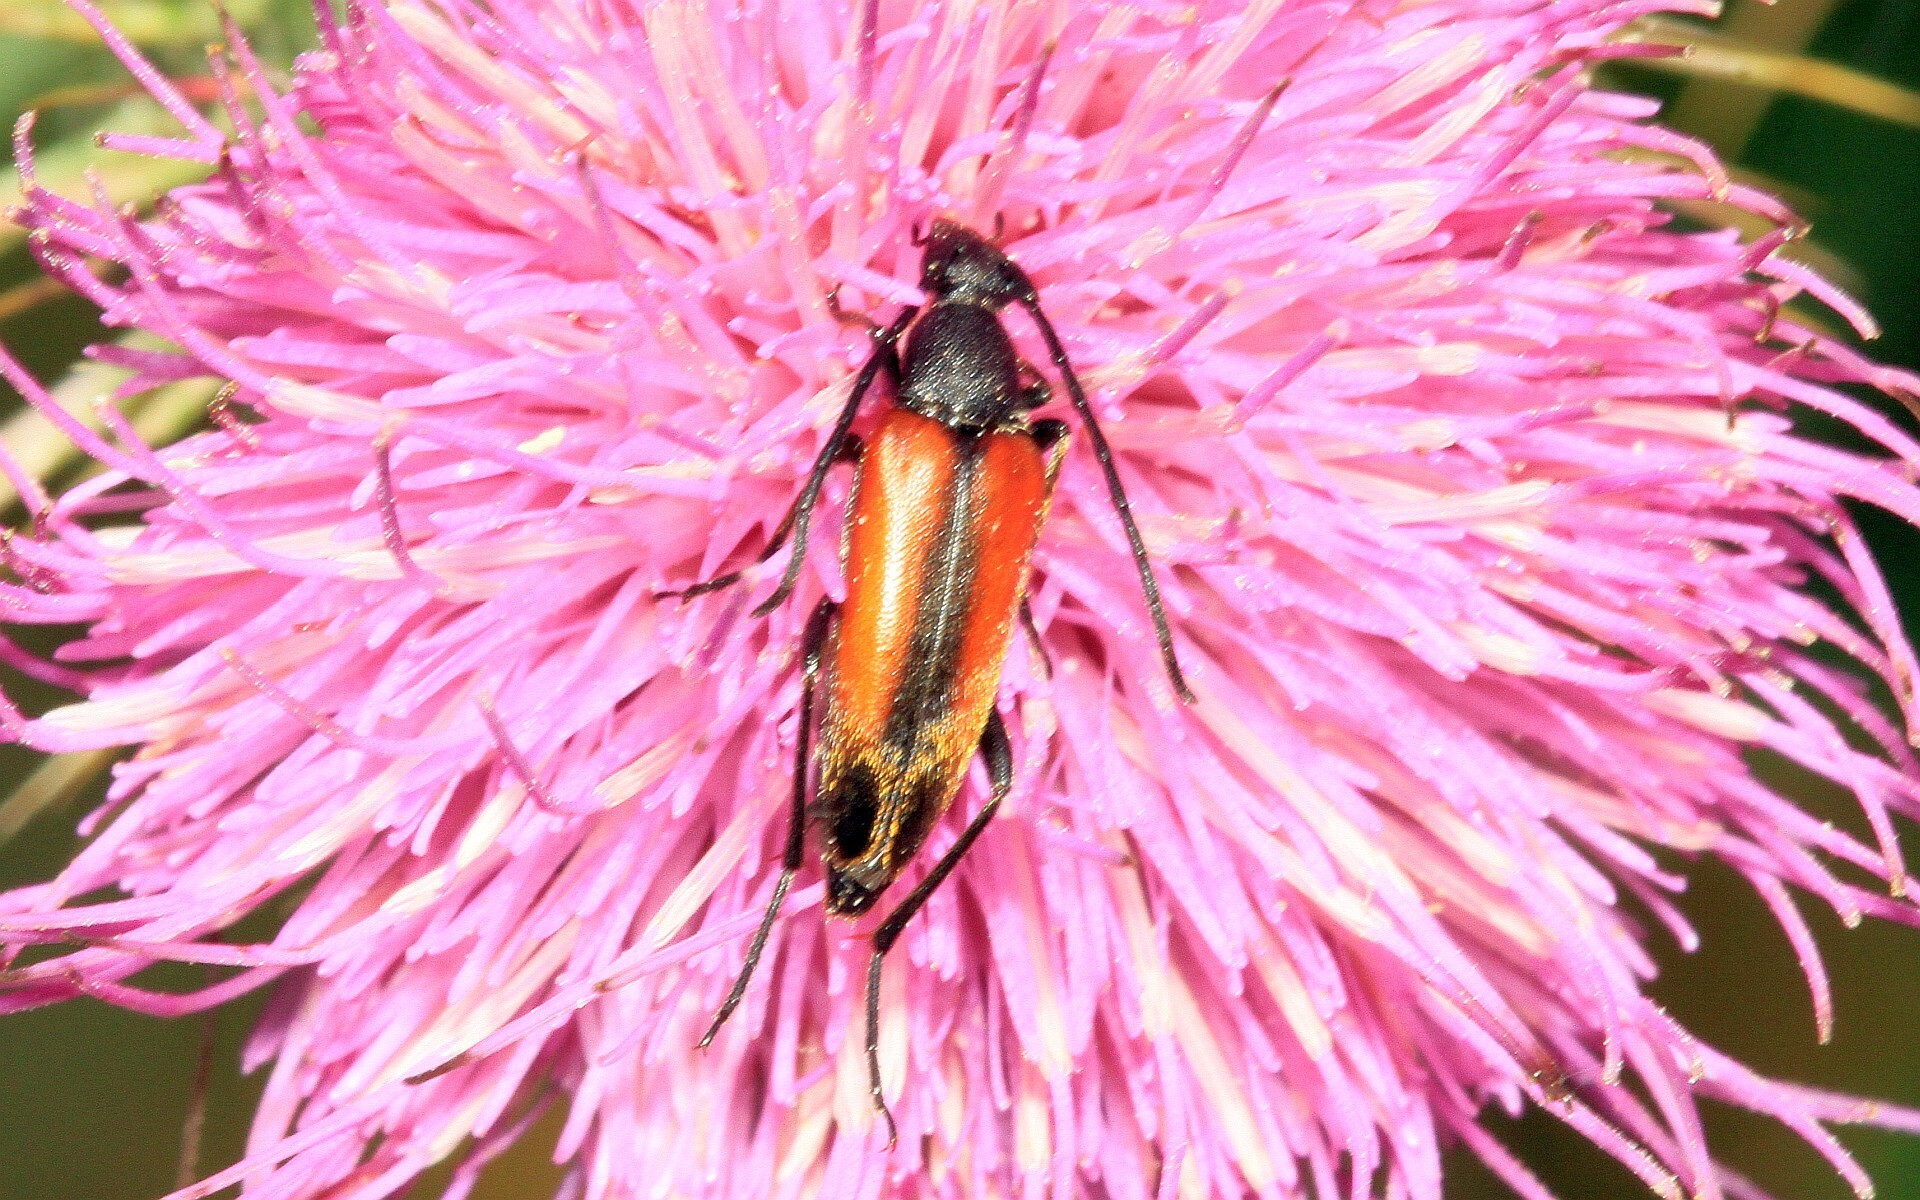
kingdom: Animalia
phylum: Arthropoda
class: Insecta
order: Coleoptera
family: Cerambycidae
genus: Stenurella
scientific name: Stenurella melanura
